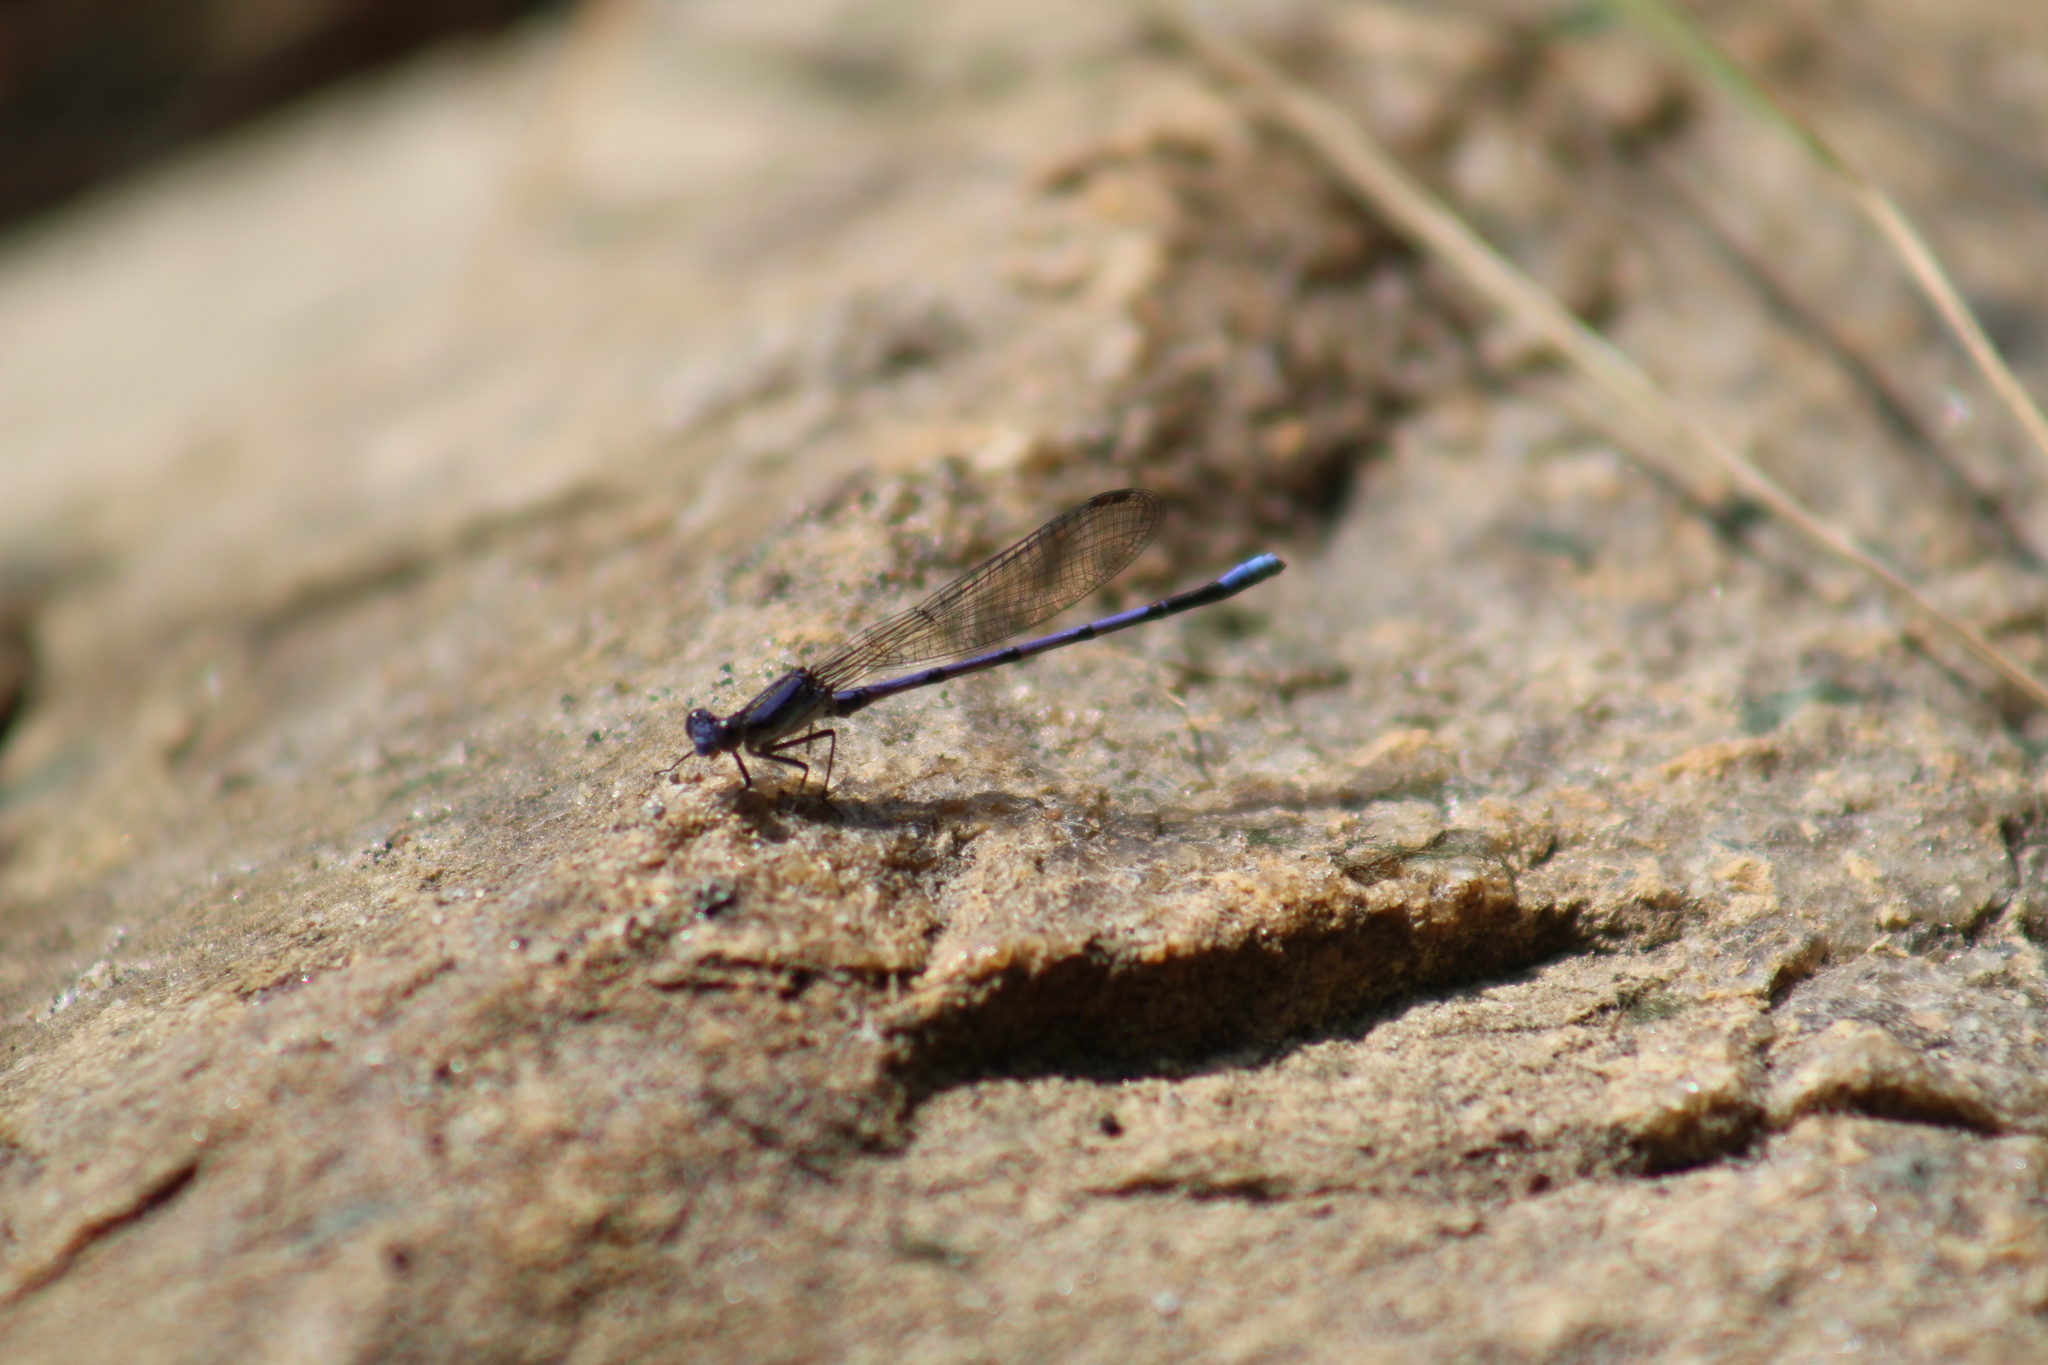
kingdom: Animalia
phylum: Arthropoda
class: Insecta
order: Odonata
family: Coenagrionidae
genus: Argia
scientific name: Argia fumipennis
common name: Variable dancer
